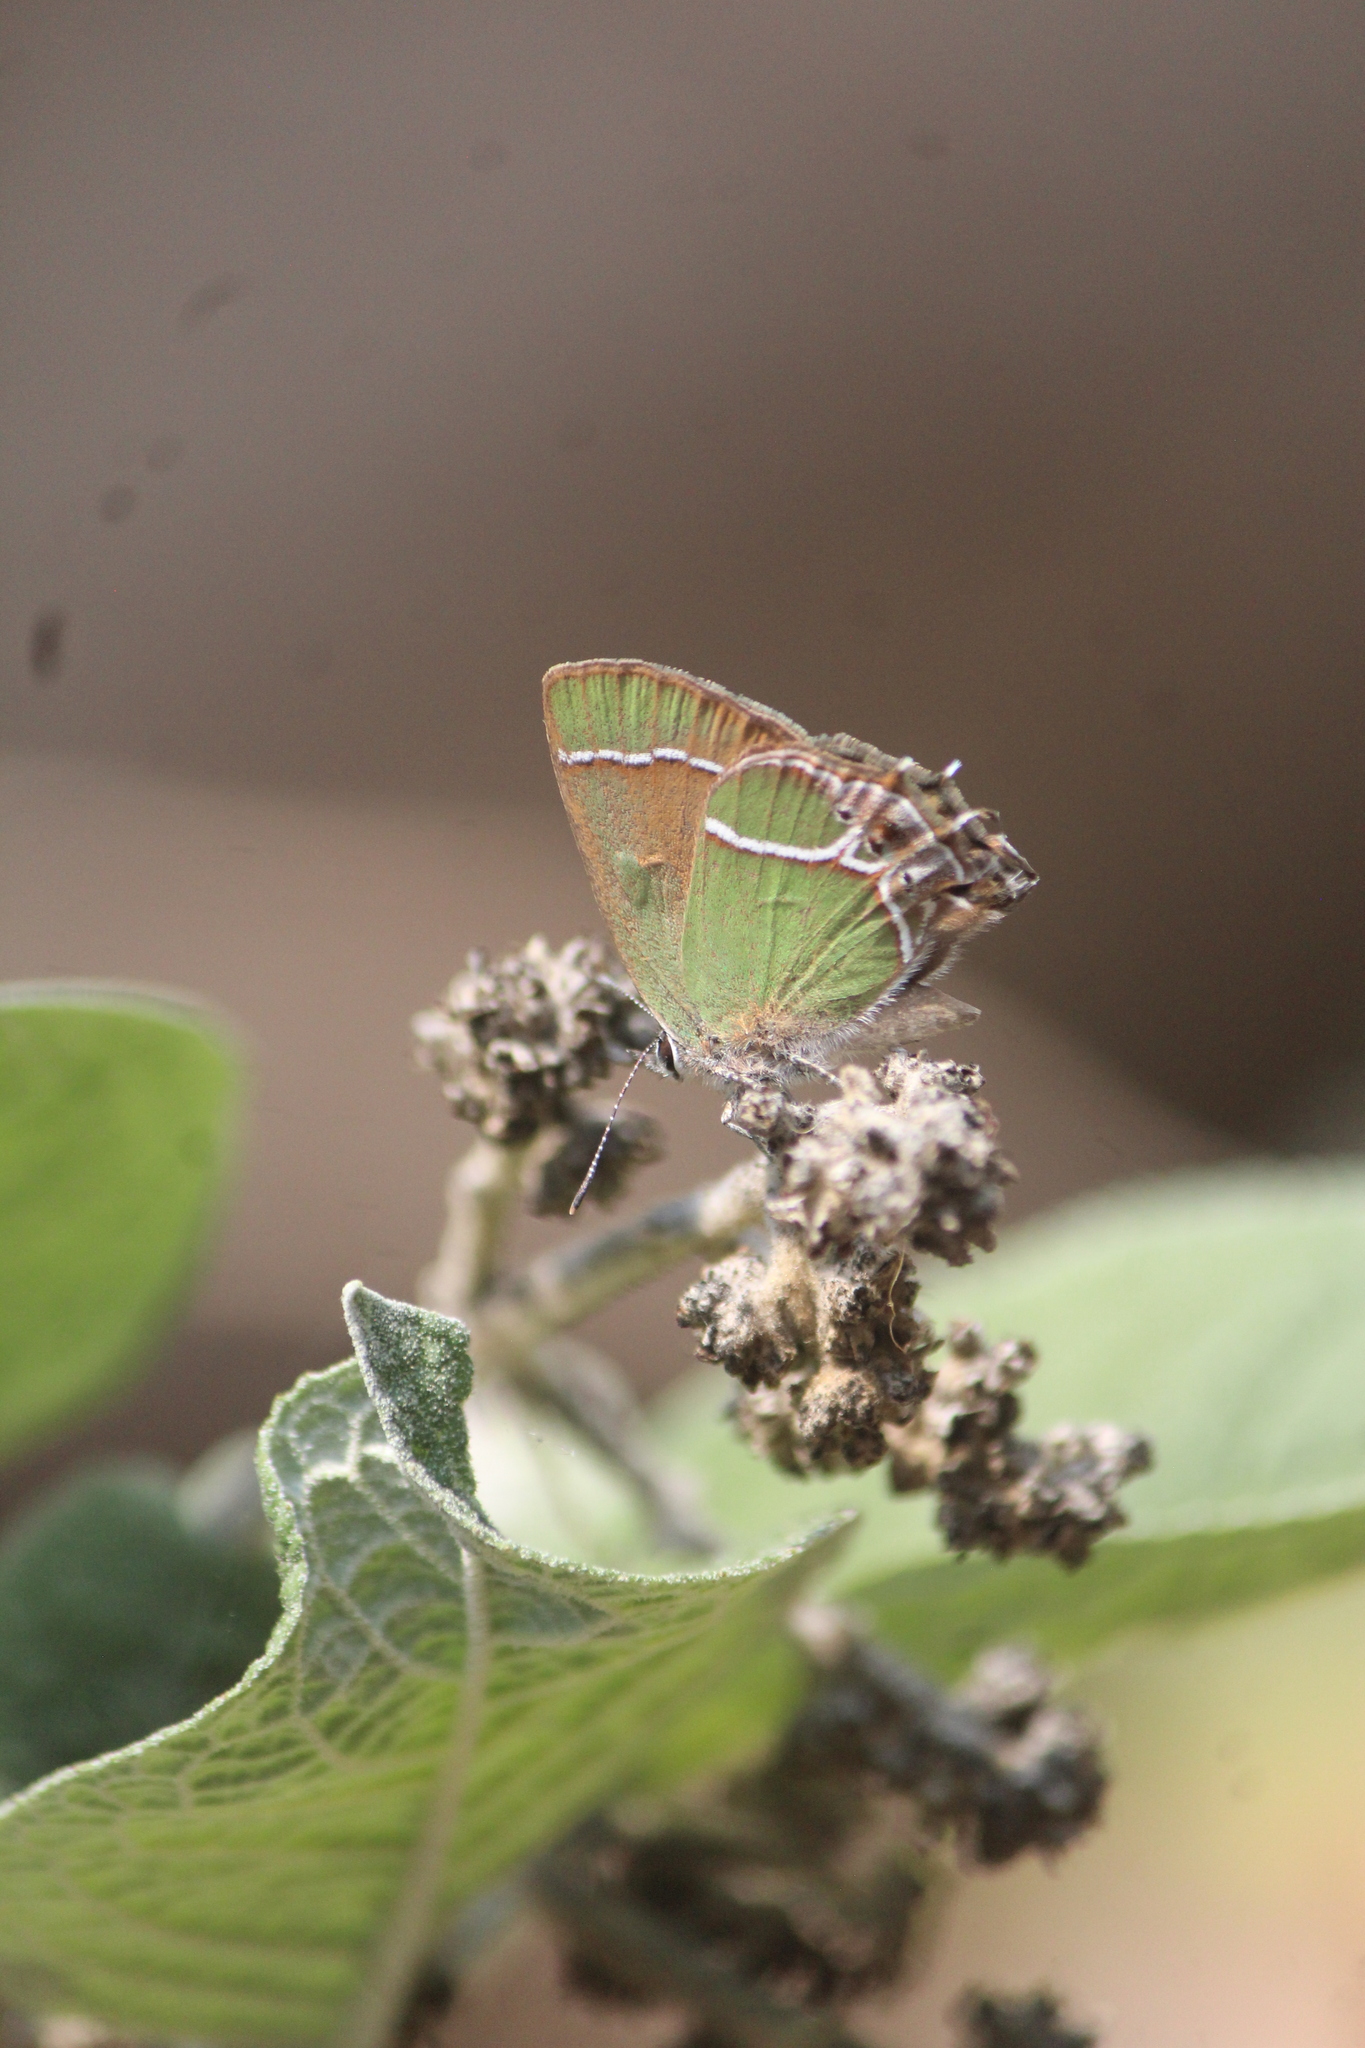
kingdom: Animalia
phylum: Arthropoda
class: Insecta
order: Lepidoptera
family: Lycaenidae
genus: Xamia
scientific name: Xamia xami
